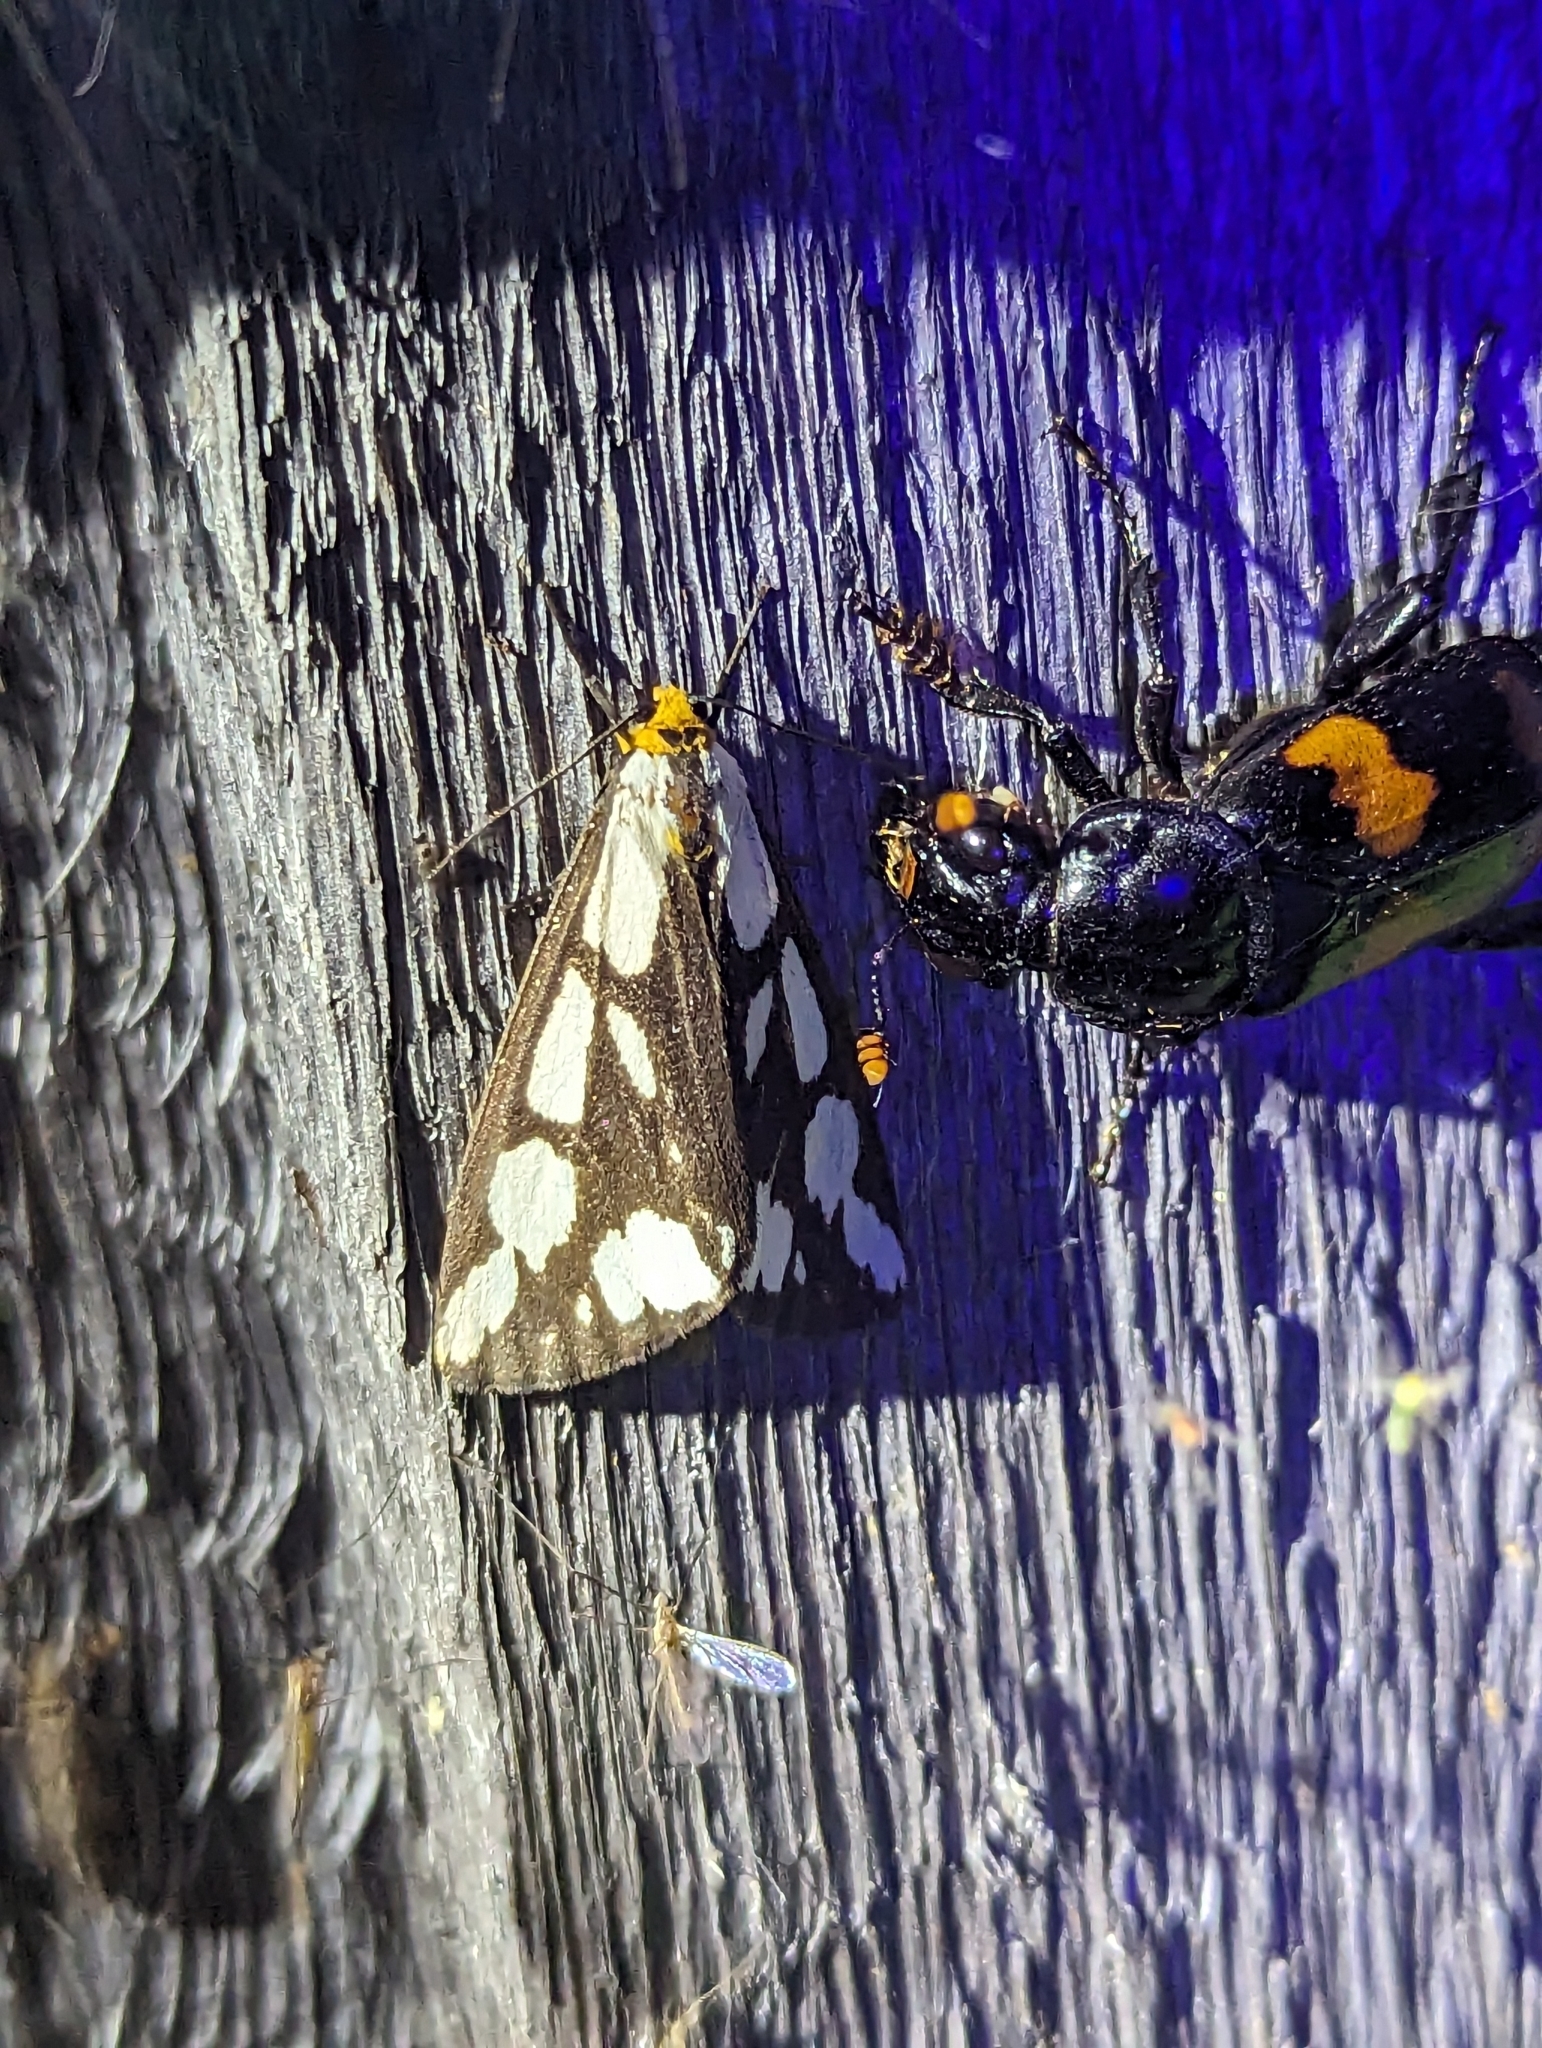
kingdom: Animalia
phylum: Arthropoda
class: Insecta
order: Lepidoptera
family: Erebidae
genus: Haploa
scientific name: Haploa confusa
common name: Confused haploa moth
